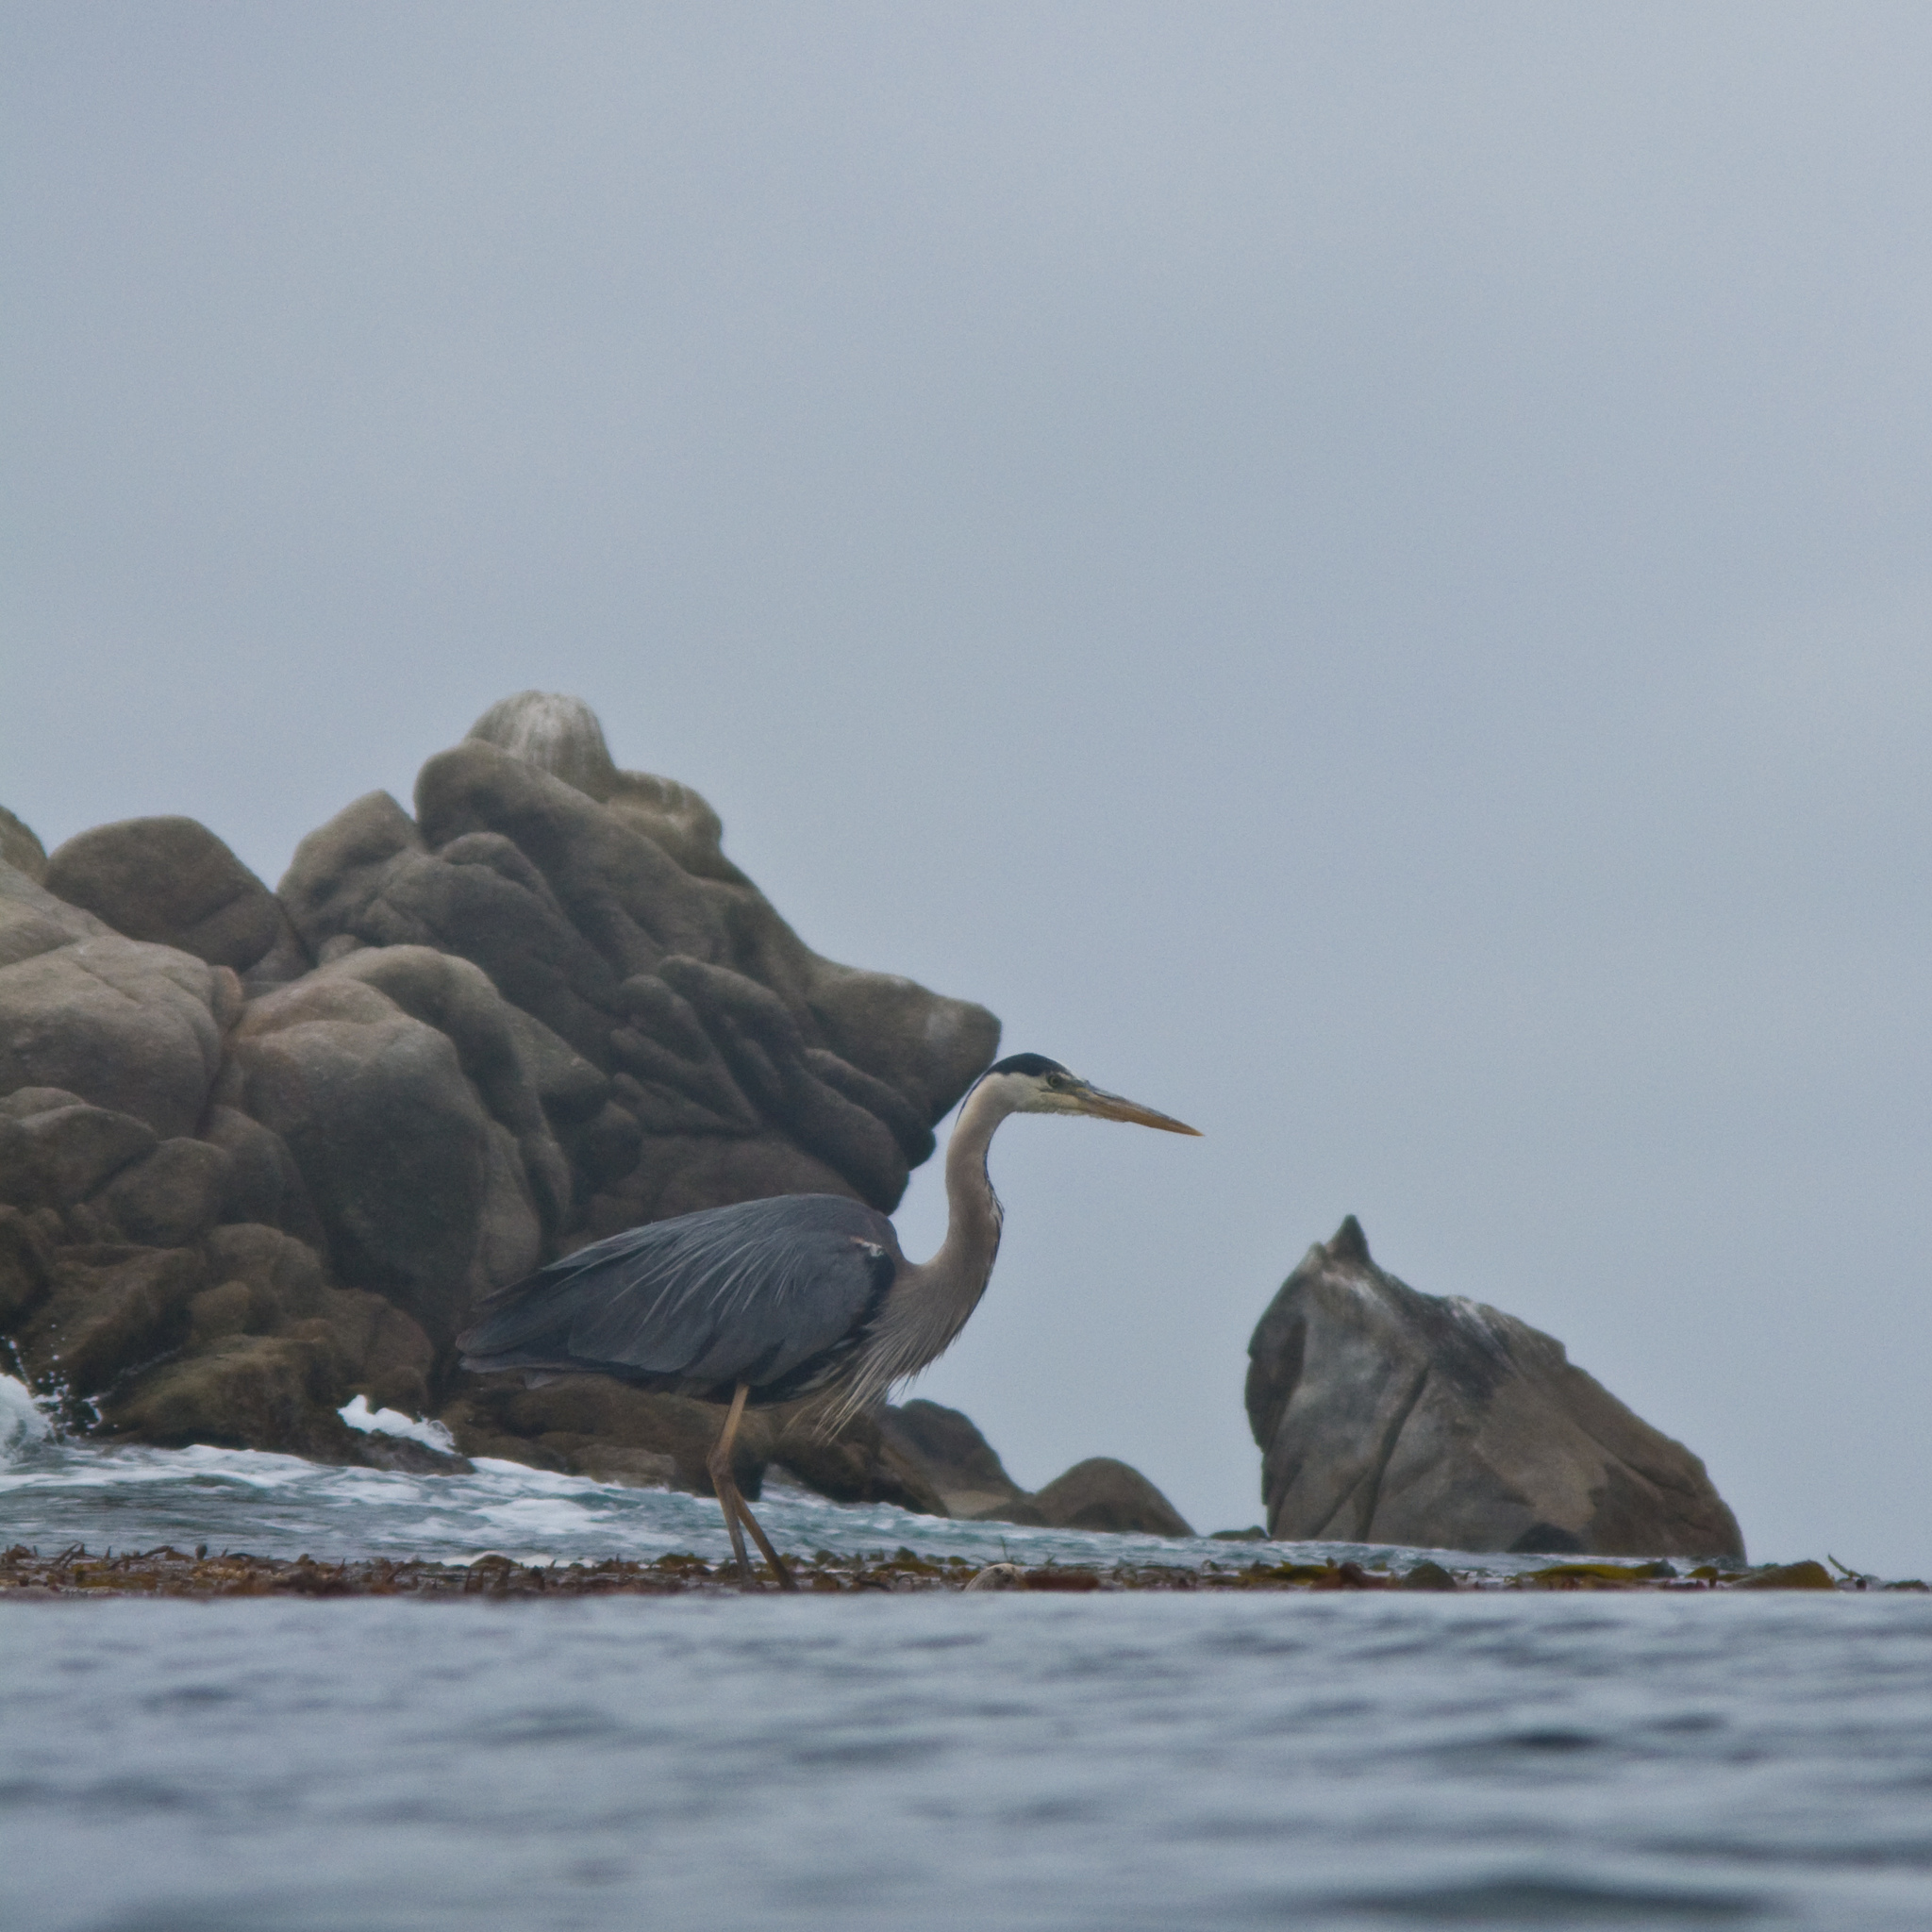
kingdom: Animalia
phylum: Chordata
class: Aves
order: Pelecaniformes
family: Ardeidae
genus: Ardea
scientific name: Ardea herodias
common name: Great blue heron
